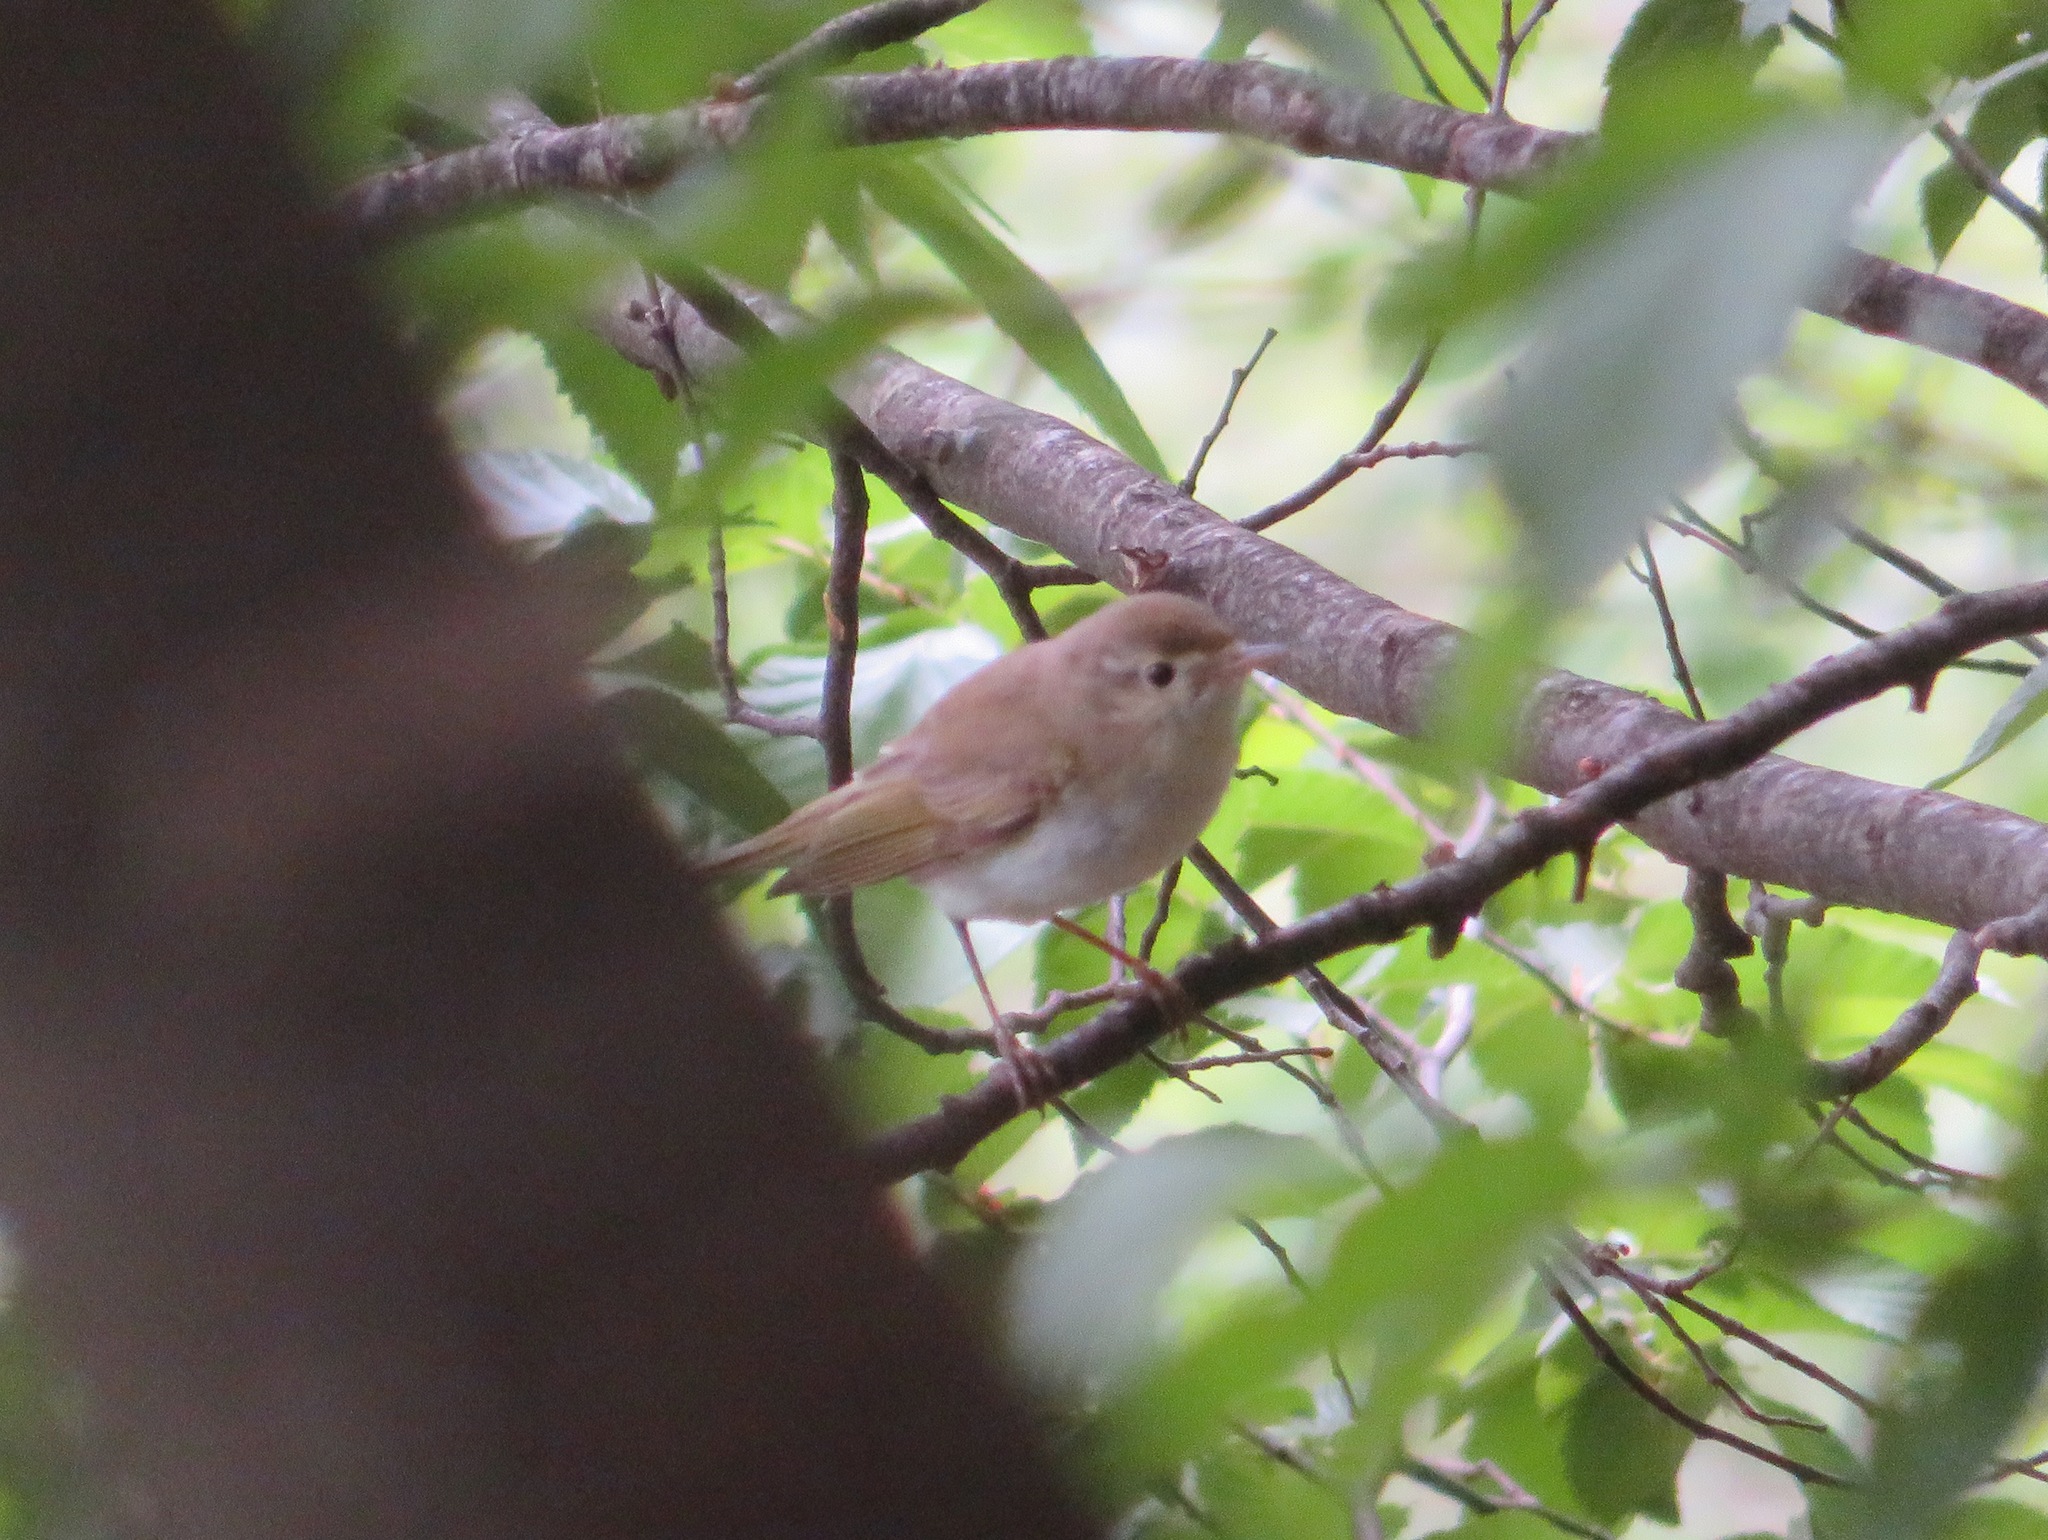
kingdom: Animalia
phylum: Chordata
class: Aves
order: Passeriformes
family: Phylloscopidae
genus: Phylloscopus
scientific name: Phylloscopus bonelli
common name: Western bonelli's warbler
